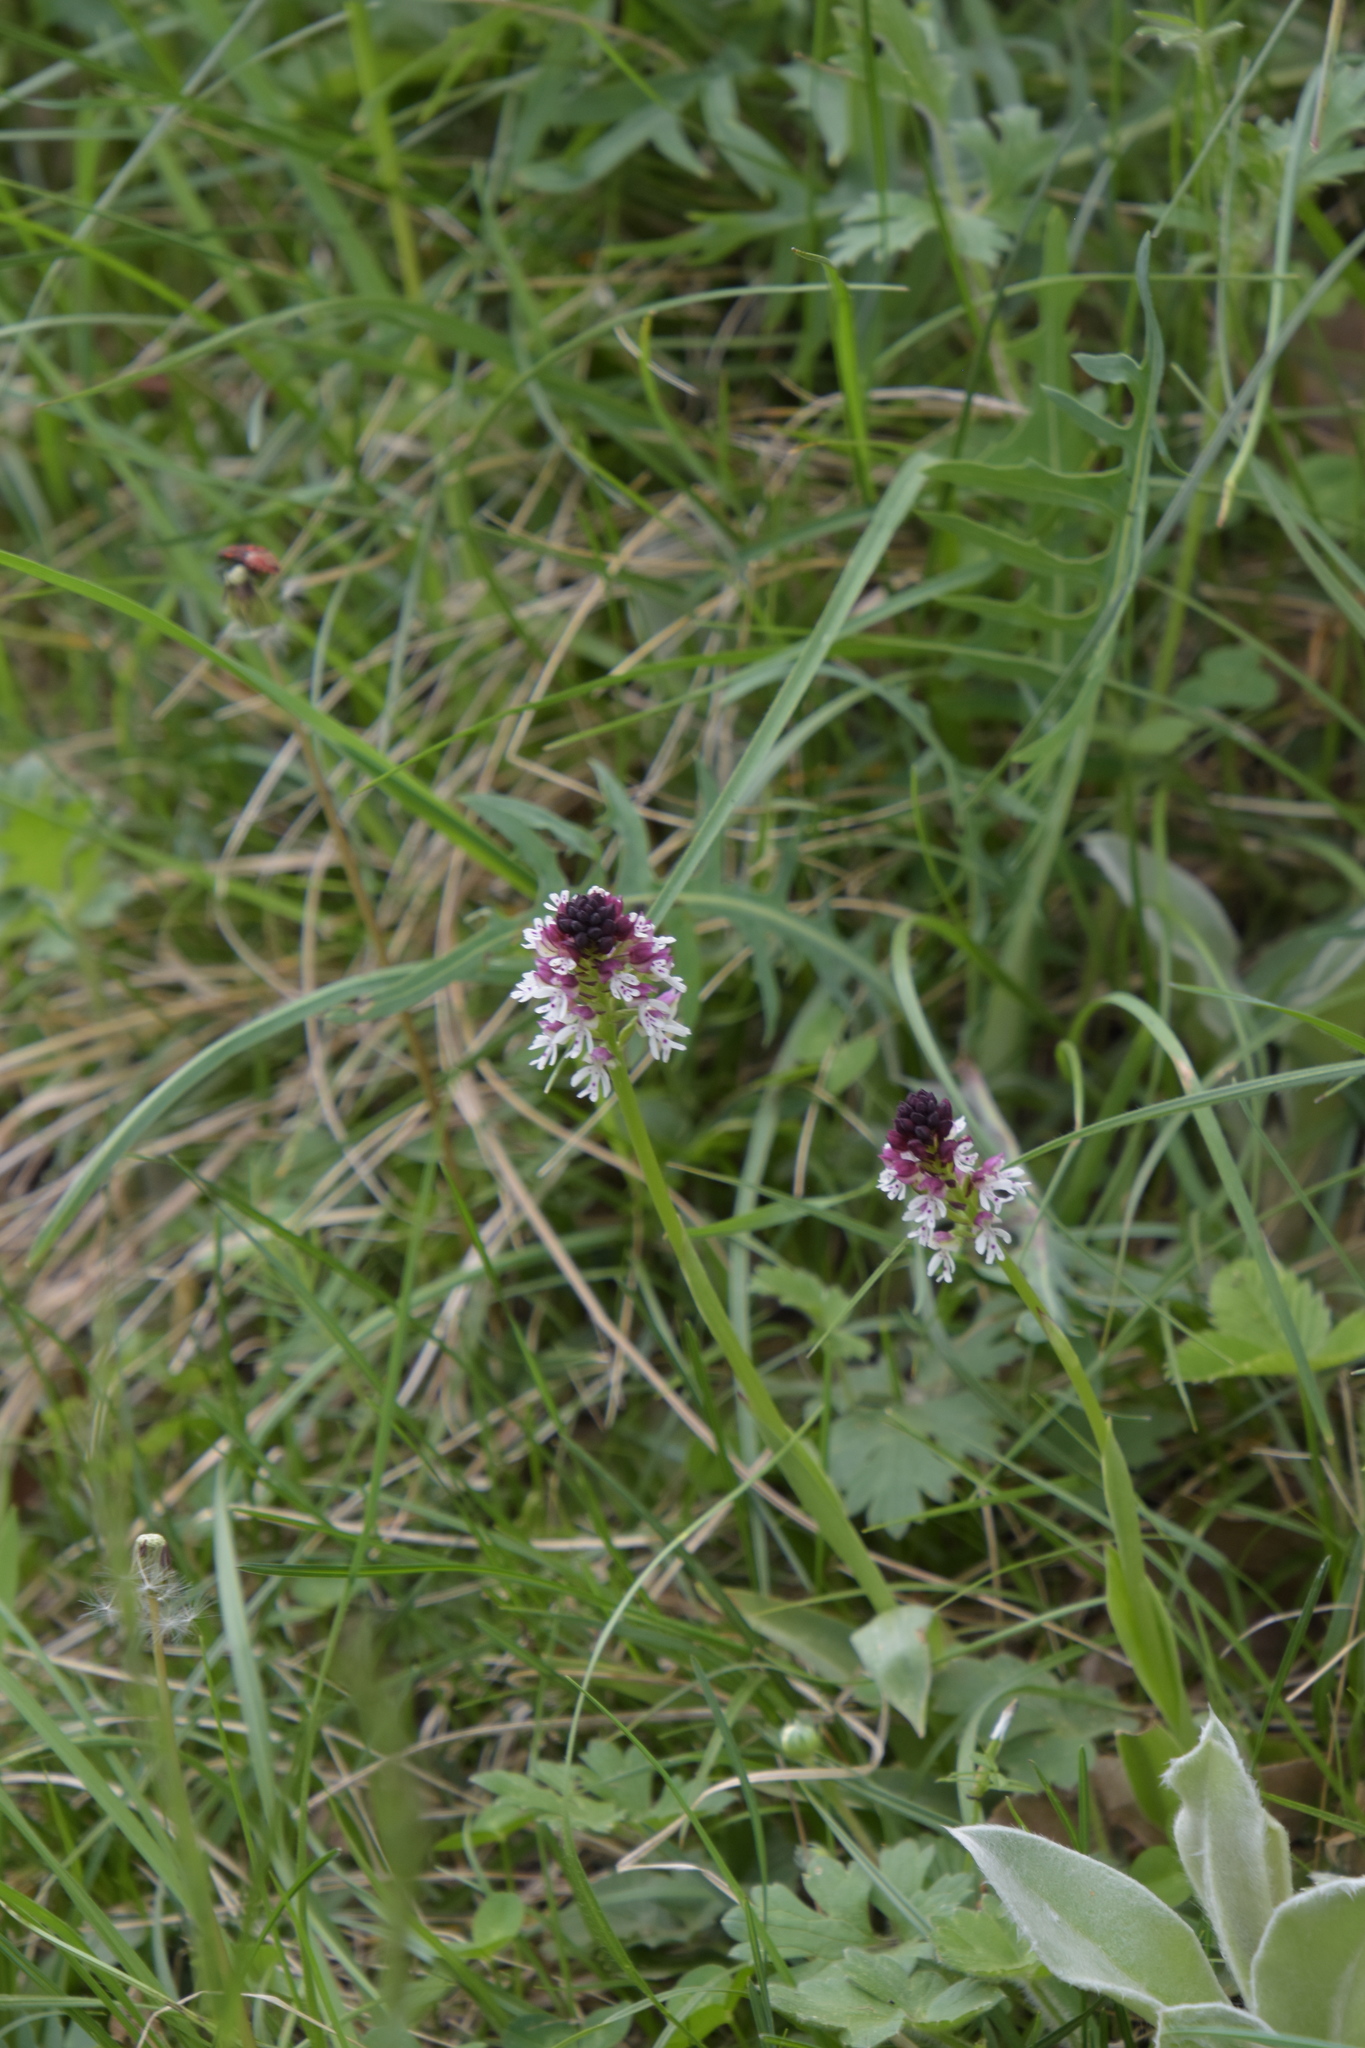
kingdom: Plantae
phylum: Tracheophyta
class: Liliopsida
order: Asparagales
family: Orchidaceae
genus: Neotinea
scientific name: Neotinea ustulata
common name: Burnt orchid
